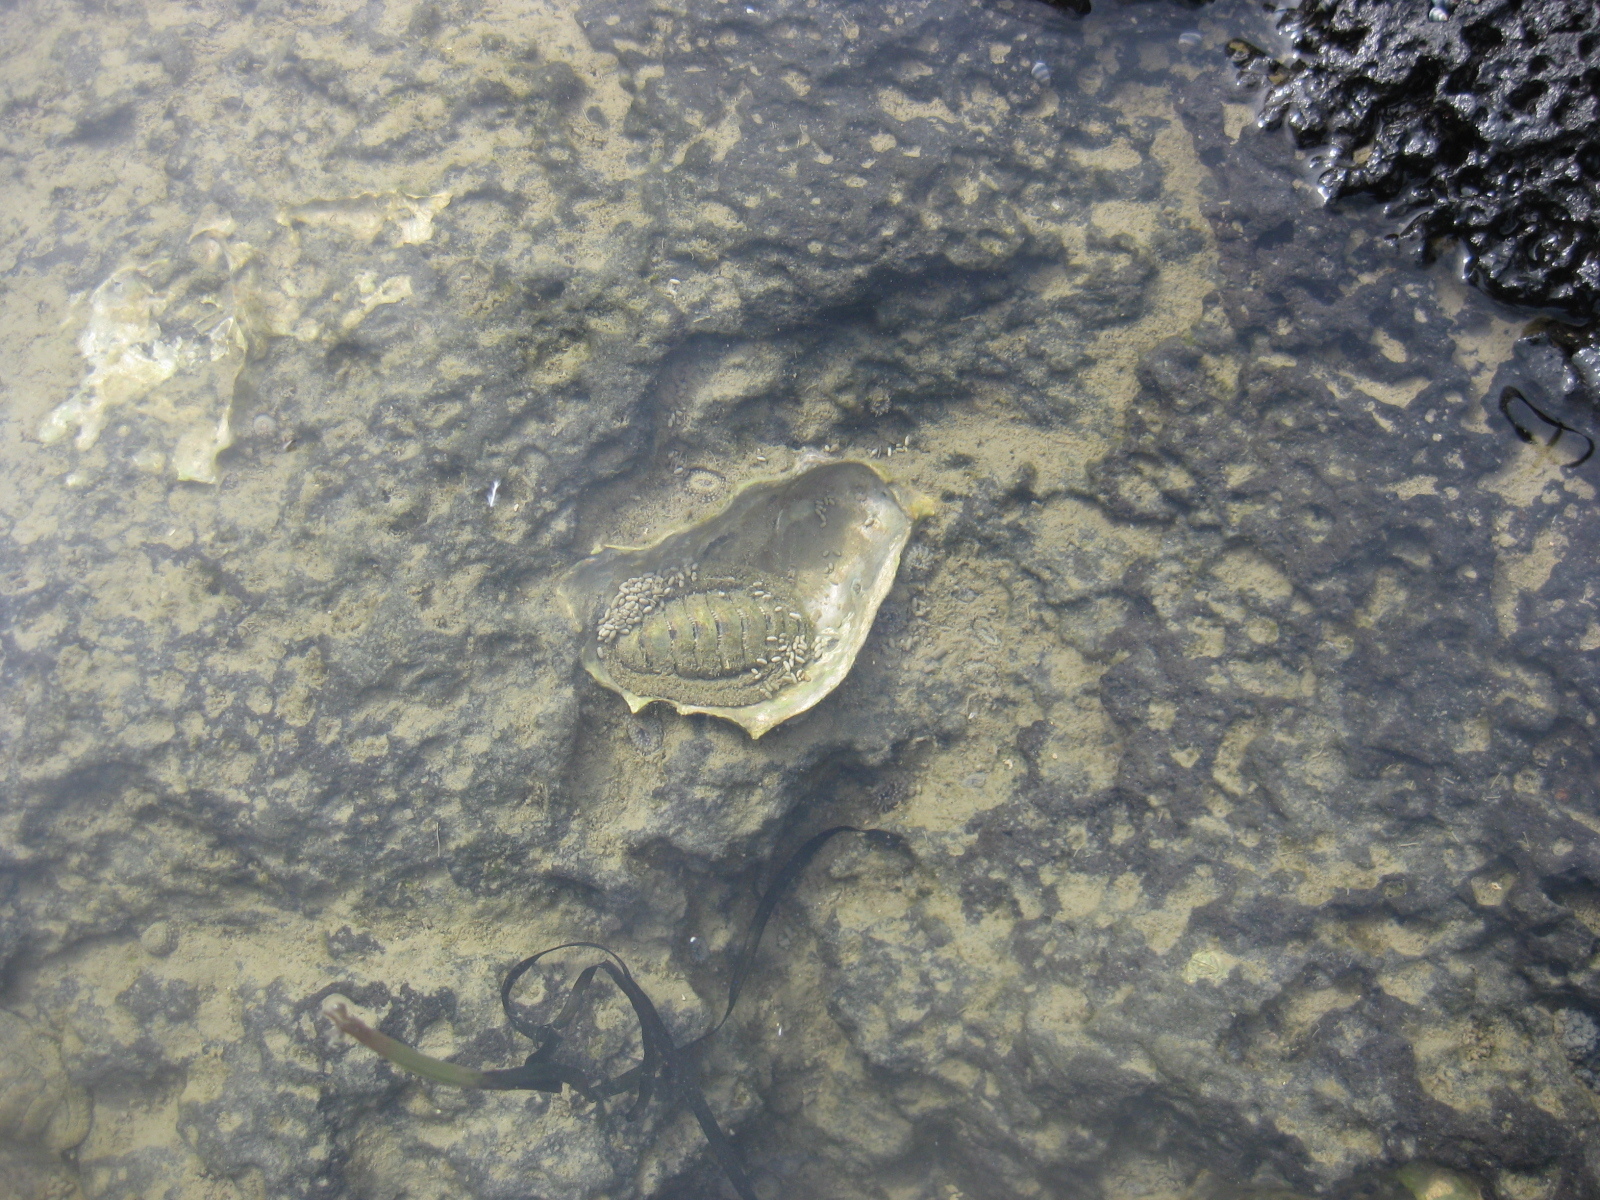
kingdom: Animalia
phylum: Mollusca
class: Polyplacophora
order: Chitonida
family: Chitonidae
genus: Sypharochiton
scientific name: Sypharochiton pelliserpentis
